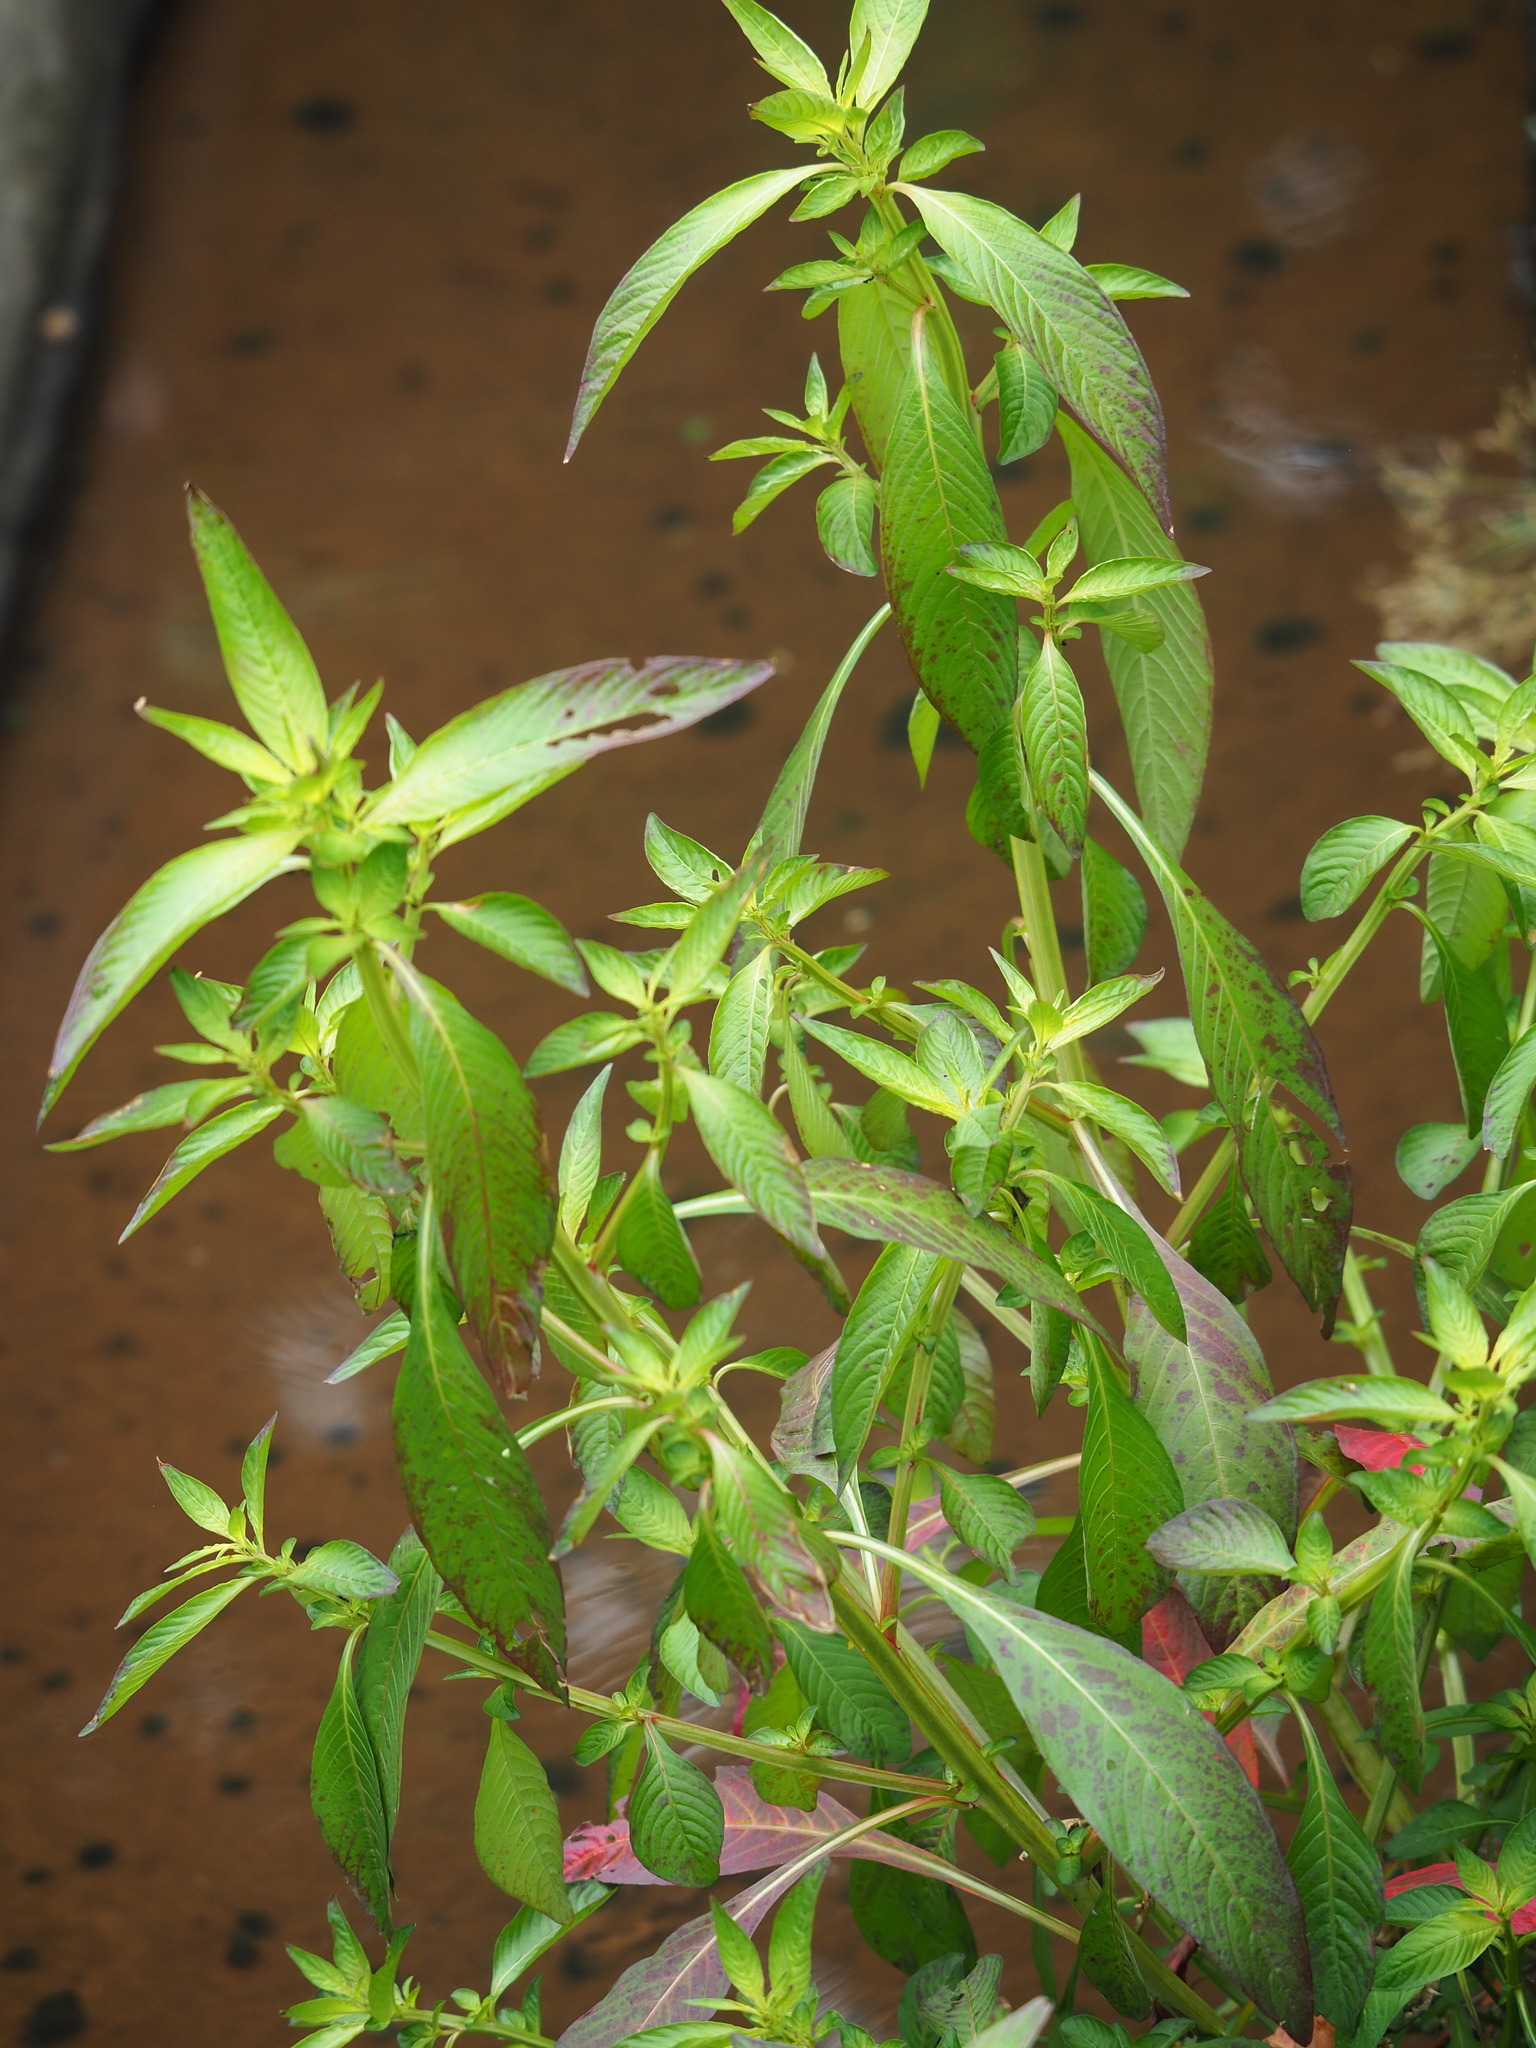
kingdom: Plantae
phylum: Tracheophyta
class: Magnoliopsida
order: Myrtales
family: Onagraceae
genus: Ludwigia
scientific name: Ludwigia hyssopifolia
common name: Linear leaf water primrose
